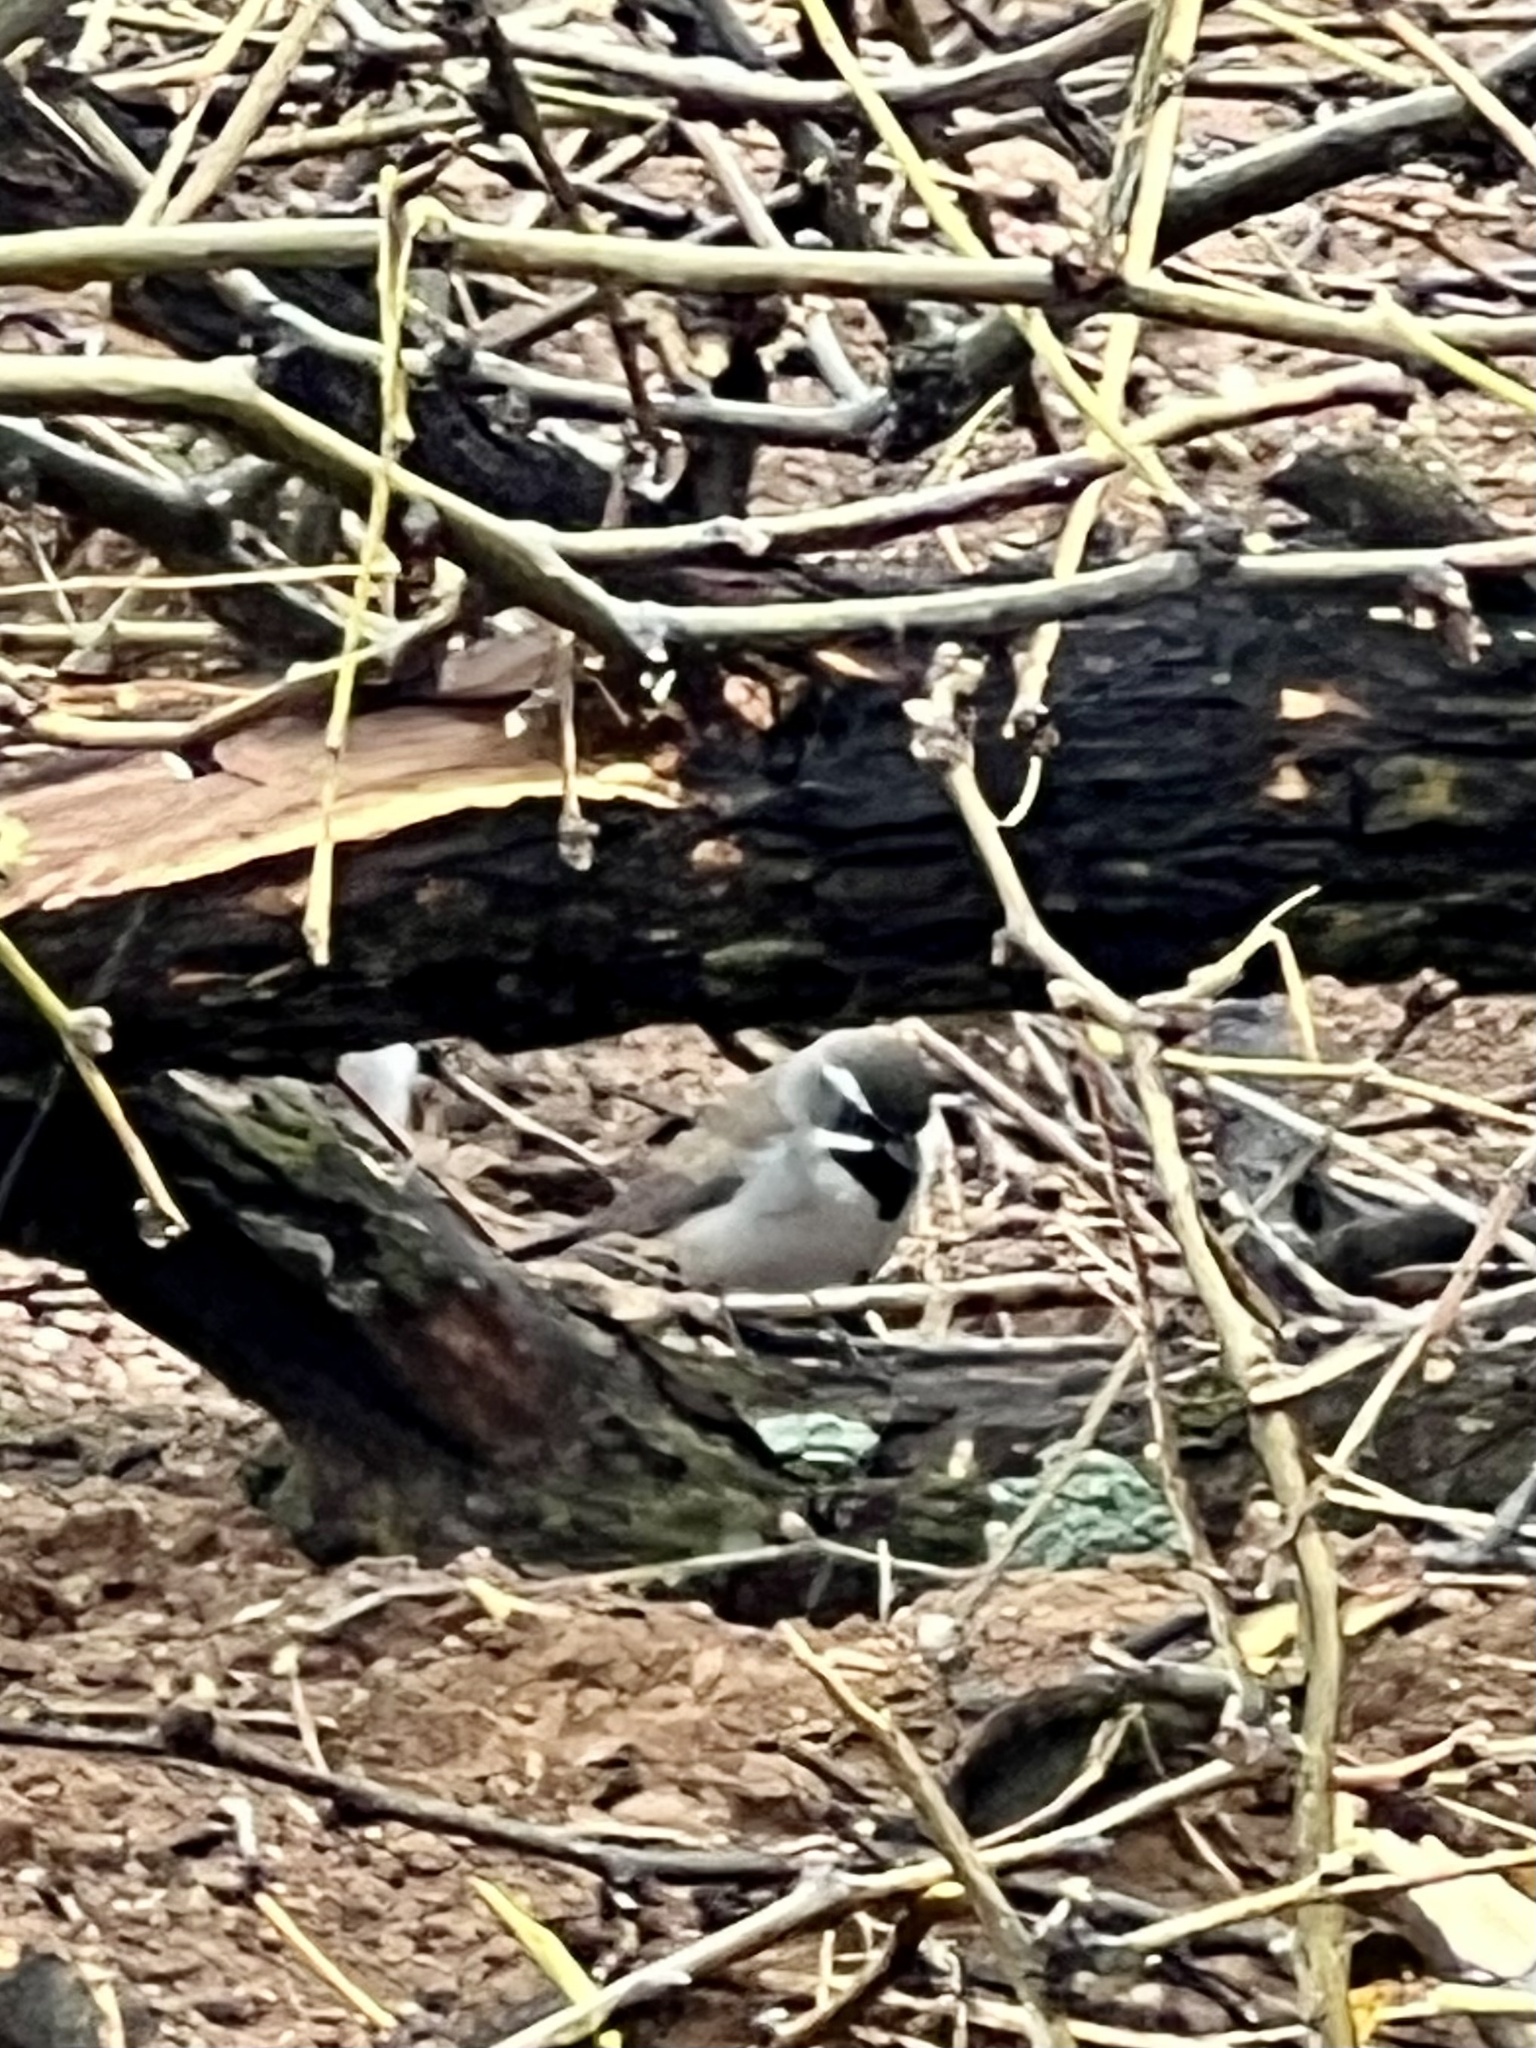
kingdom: Animalia
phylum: Chordata
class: Aves
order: Passeriformes
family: Passerellidae
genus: Amphispiza
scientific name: Amphispiza bilineata
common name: Black-throated sparrow
